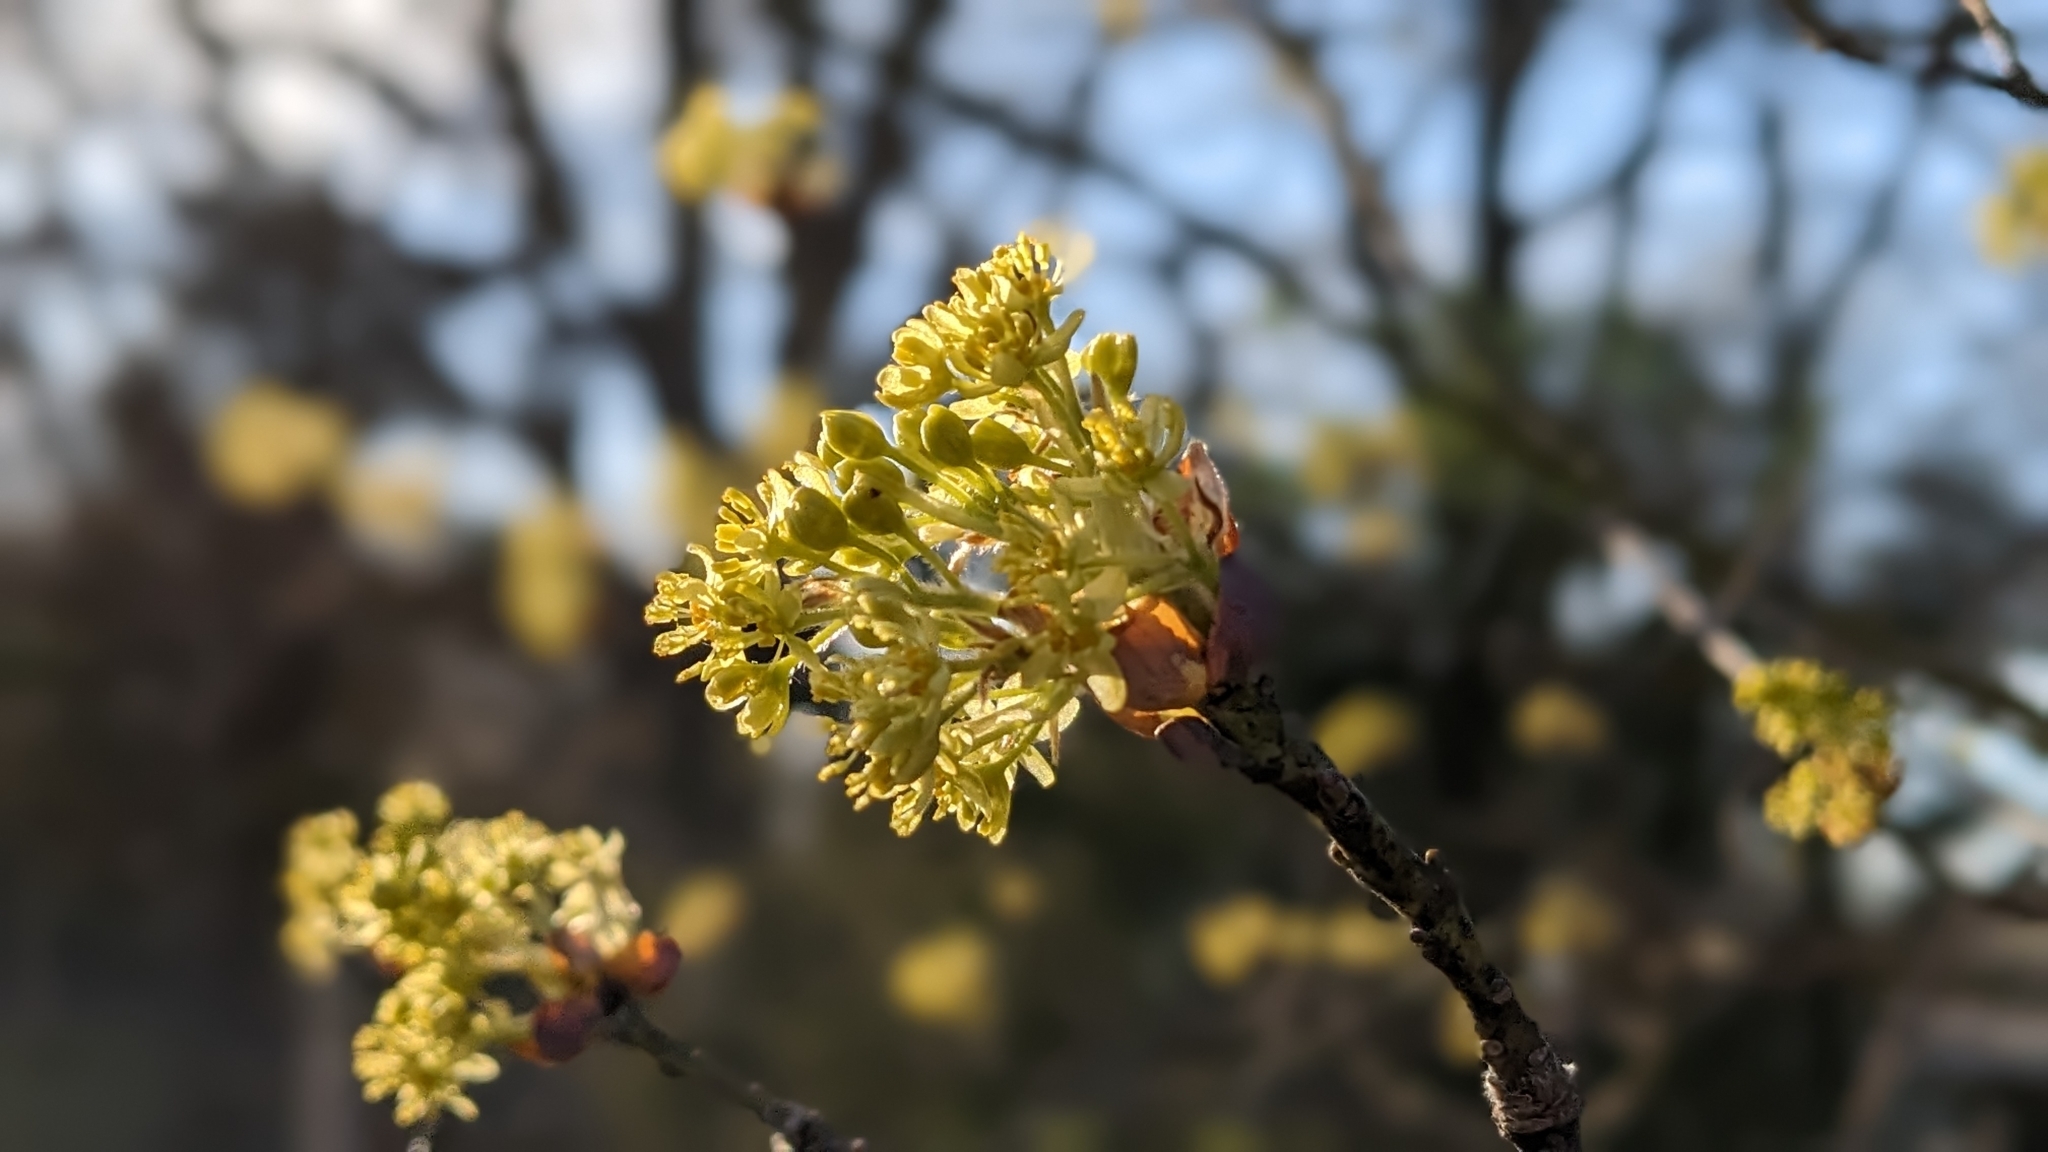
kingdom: Plantae
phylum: Tracheophyta
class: Magnoliopsida
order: Laurales
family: Lauraceae
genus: Sassafras
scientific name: Sassafras albidum
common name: Sassafras
